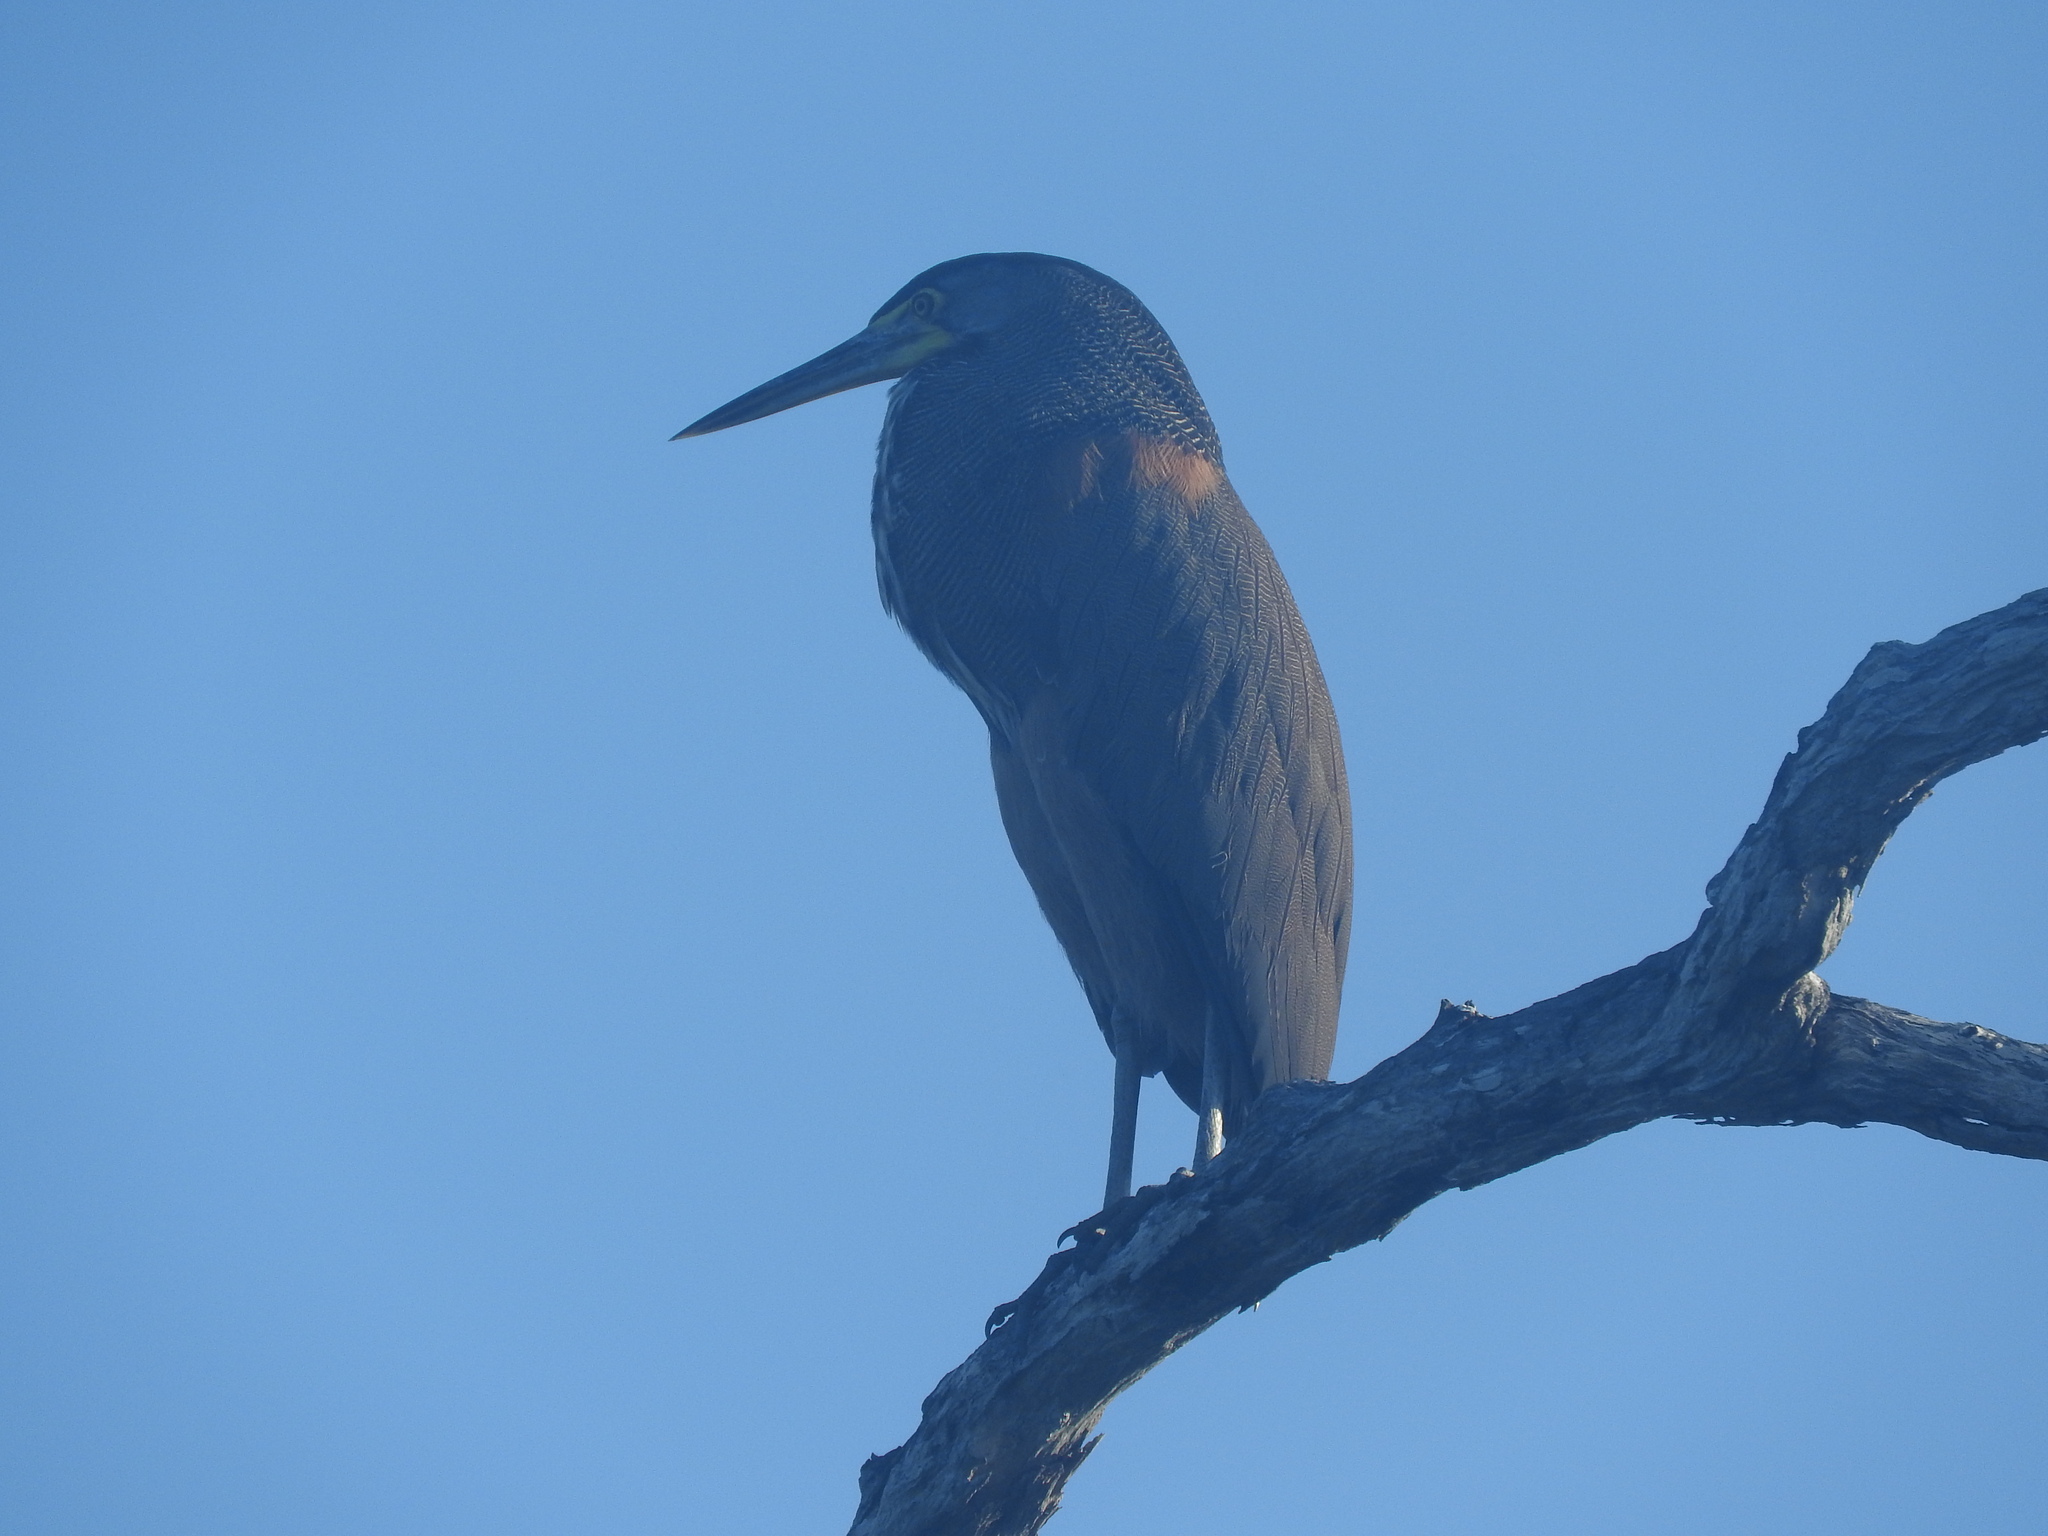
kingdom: Animalia
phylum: Chordata
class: Aves
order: Pelecaniformes
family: Ardeidae
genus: Tigrisoma
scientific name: Tigrisoma mexicanum
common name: Bare-throated tiger-heron
